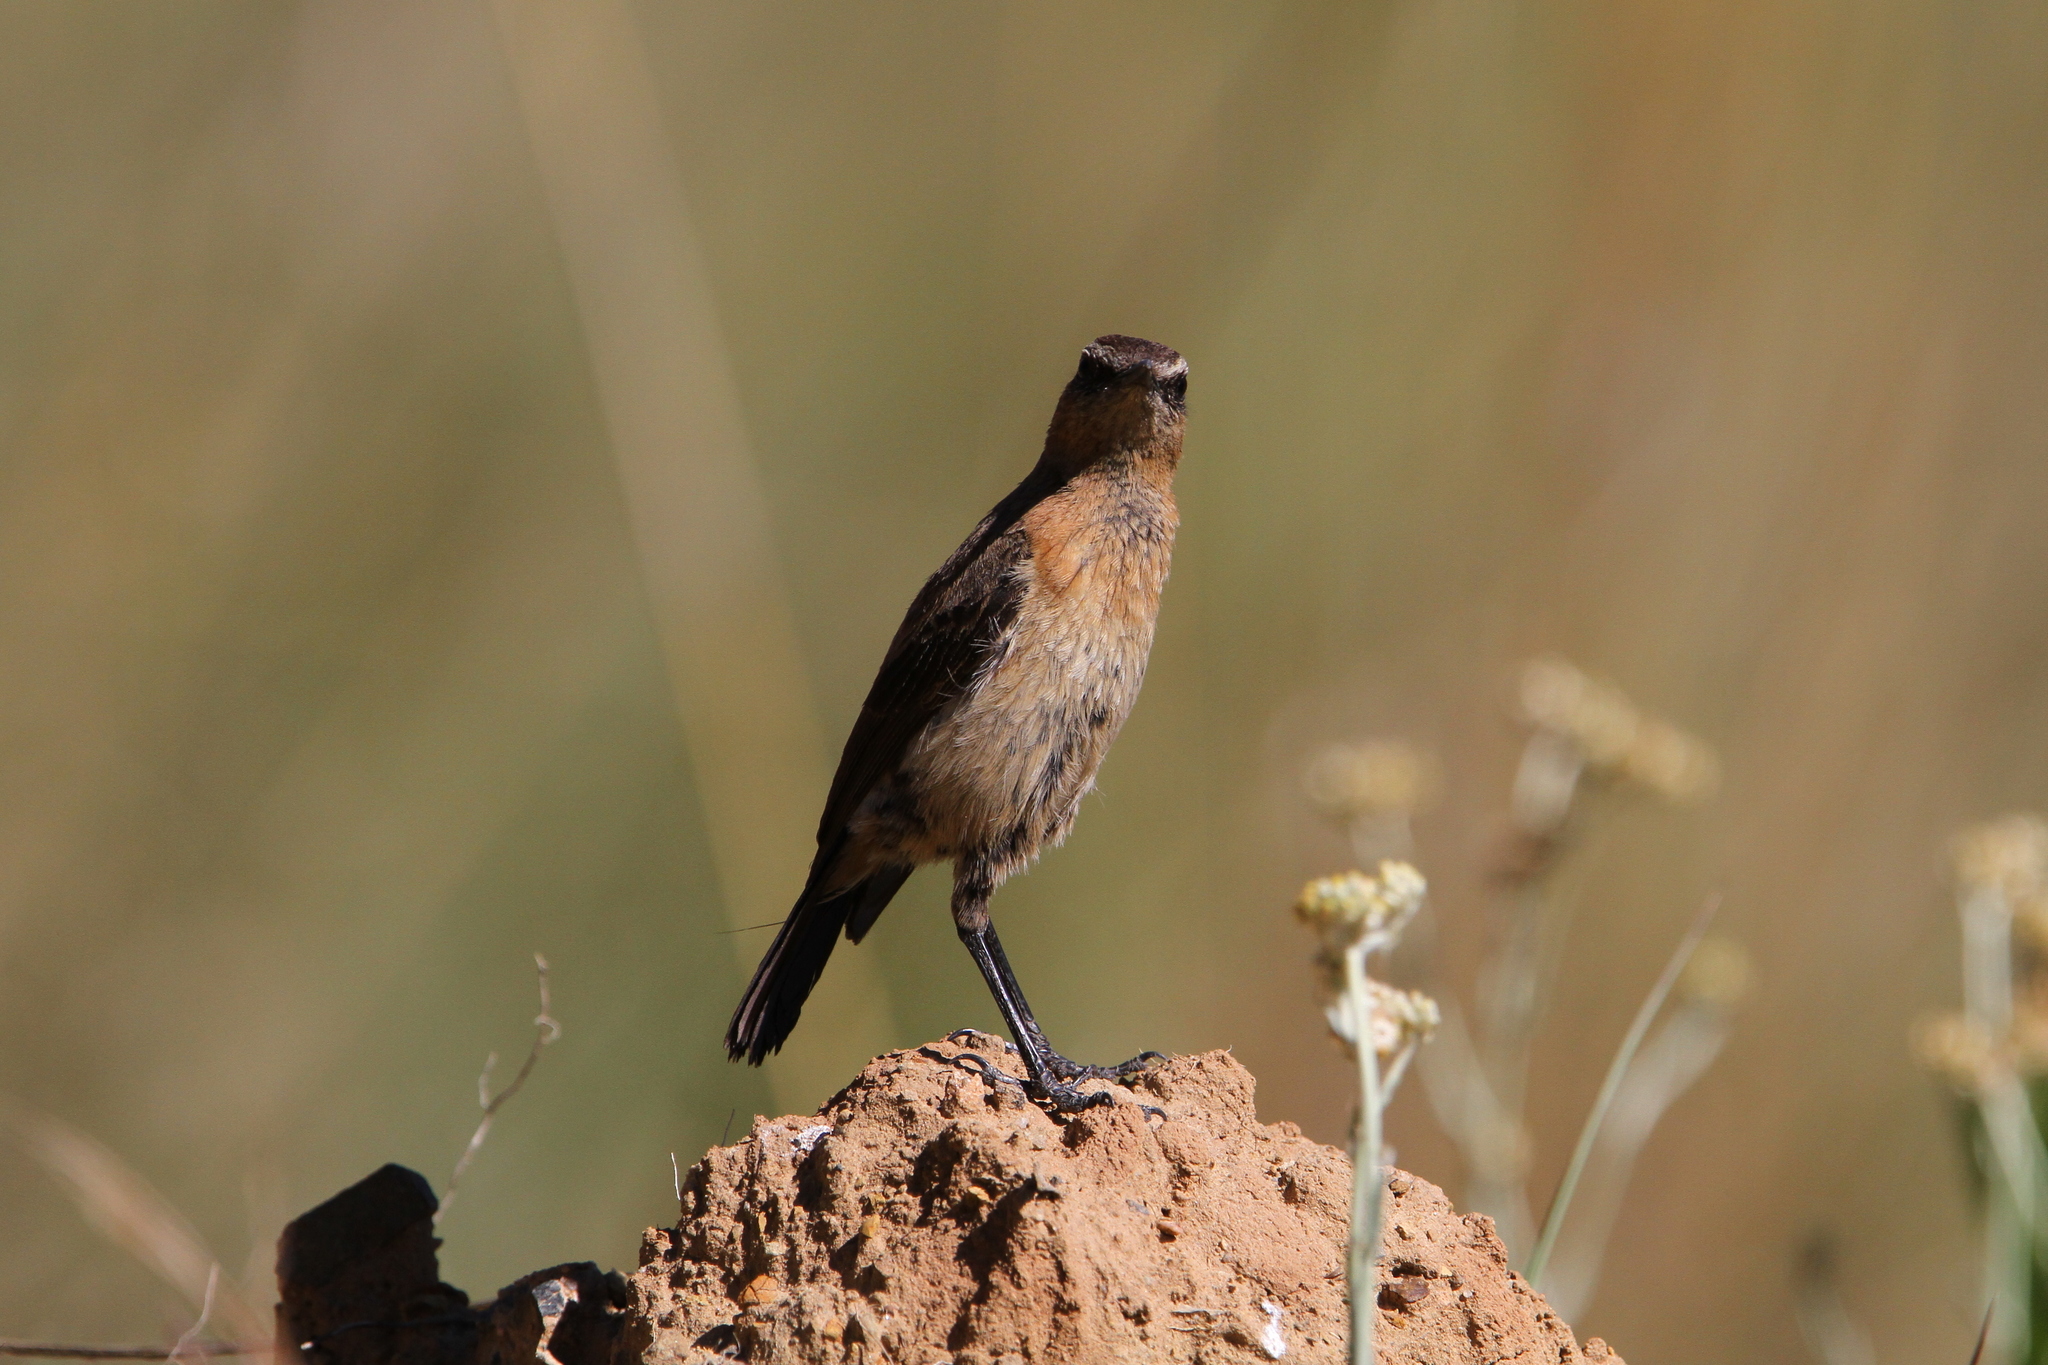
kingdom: Animalia
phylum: Chordata
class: Aves
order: Passeriformes
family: Muscicapidae
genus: Campicoloides
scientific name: Campicoloides bifasciatus
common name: Buff-streaked chat
